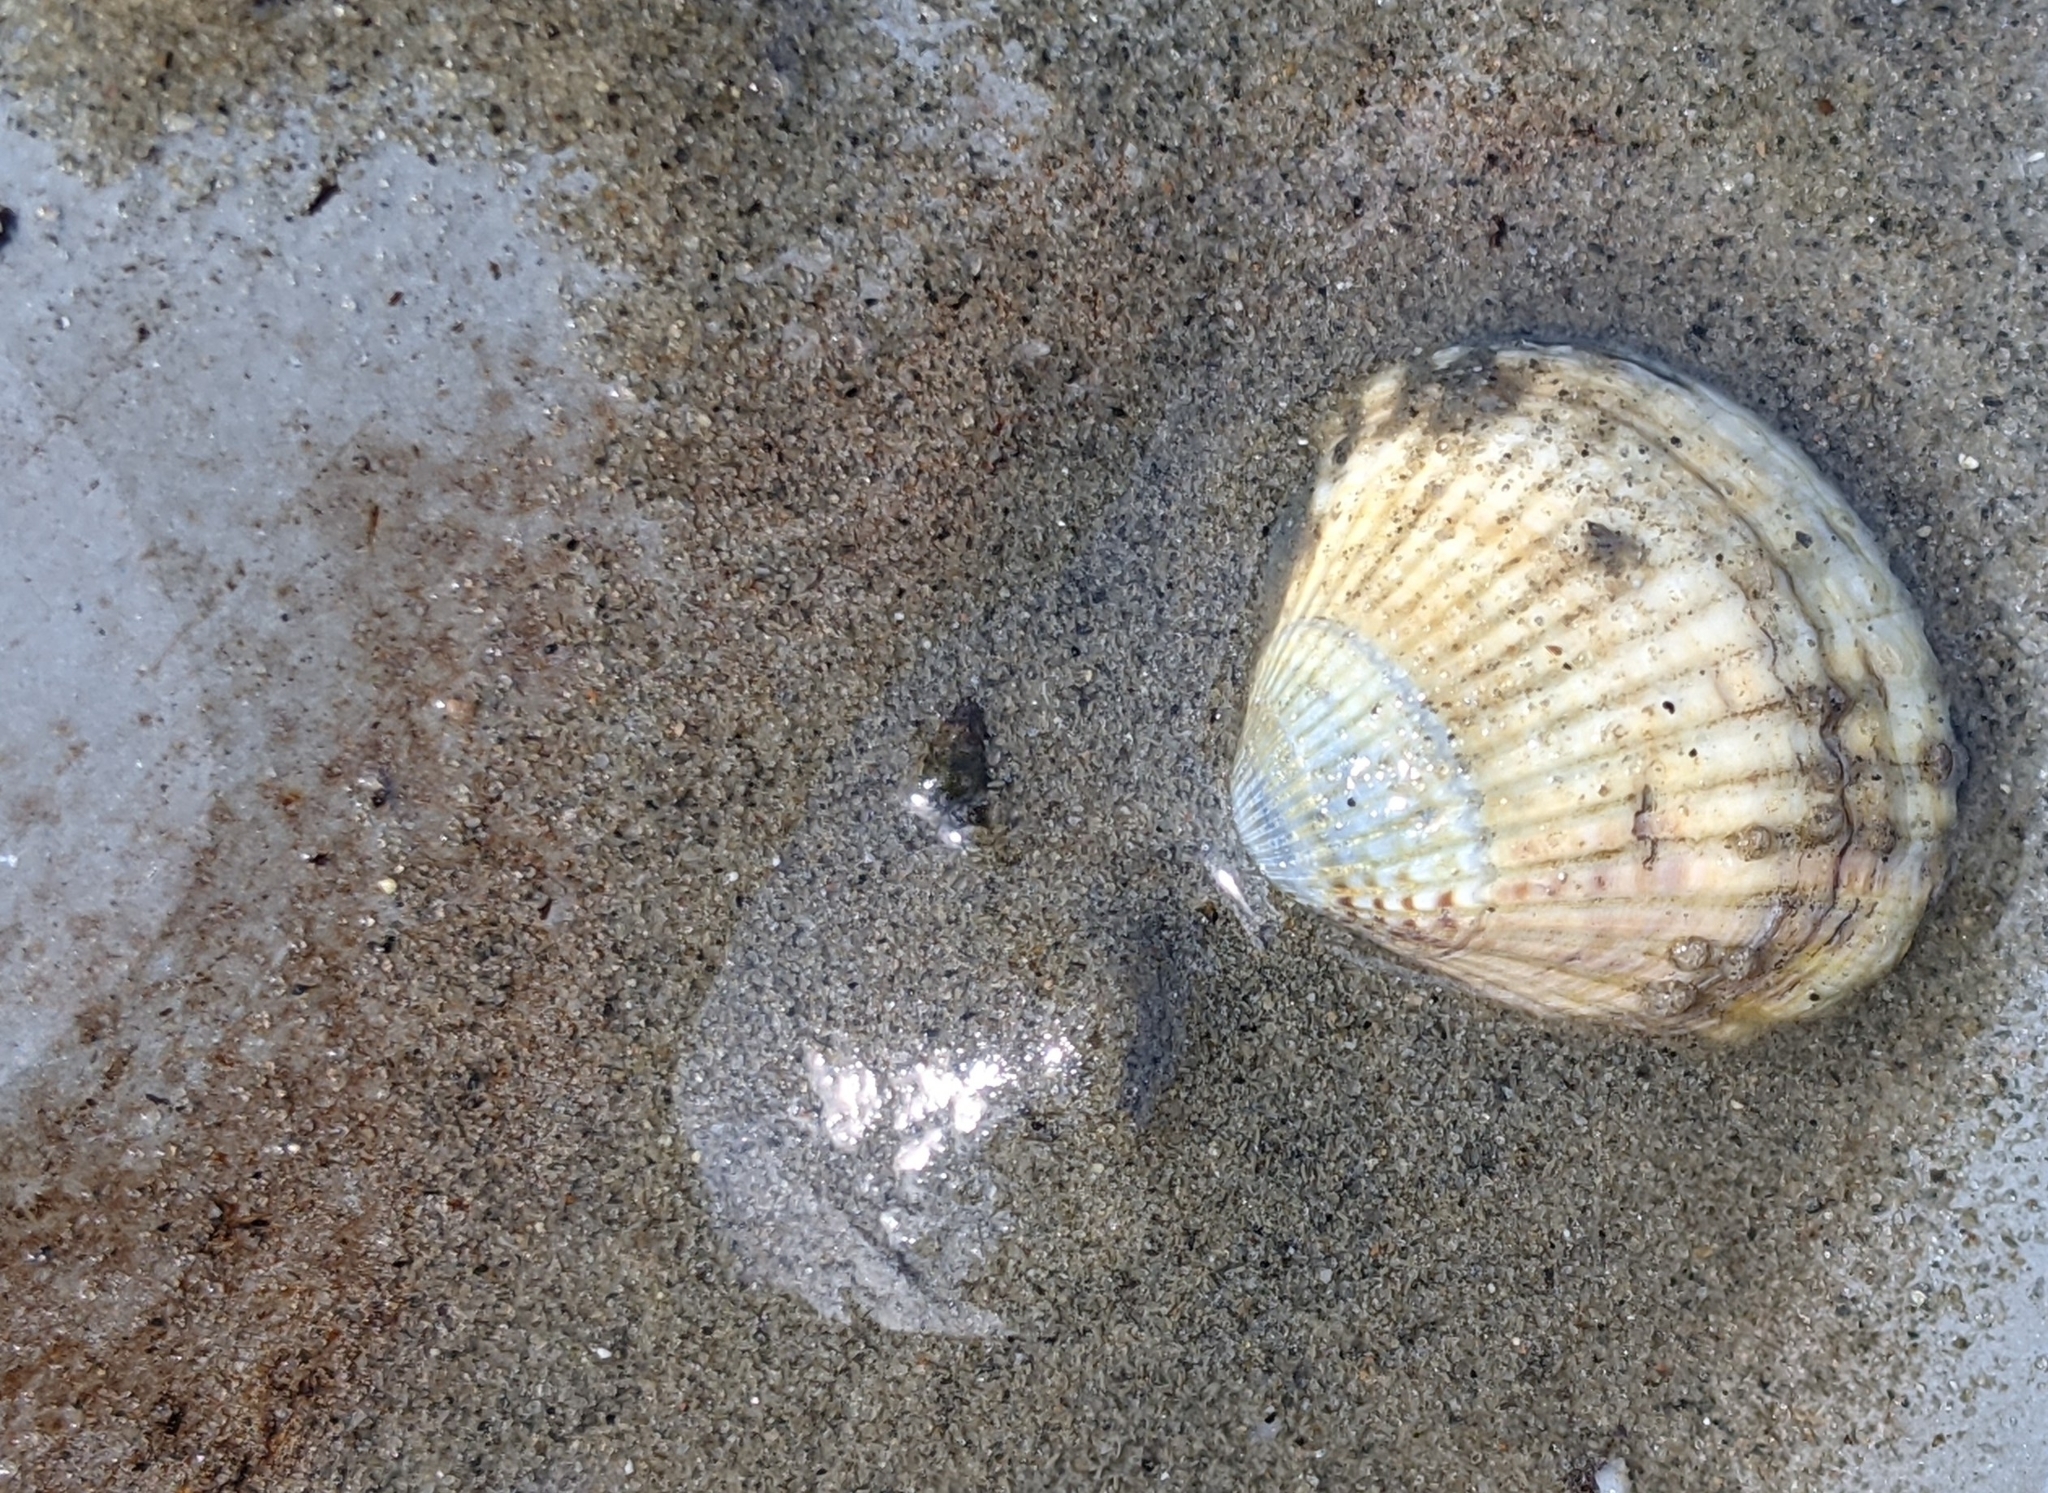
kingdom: Animalia
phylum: Mollusca
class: Bivalvia
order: Cardiida
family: Cardiidae
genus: Cerastoderma
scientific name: Cerastoderma edule
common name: Common cockle
